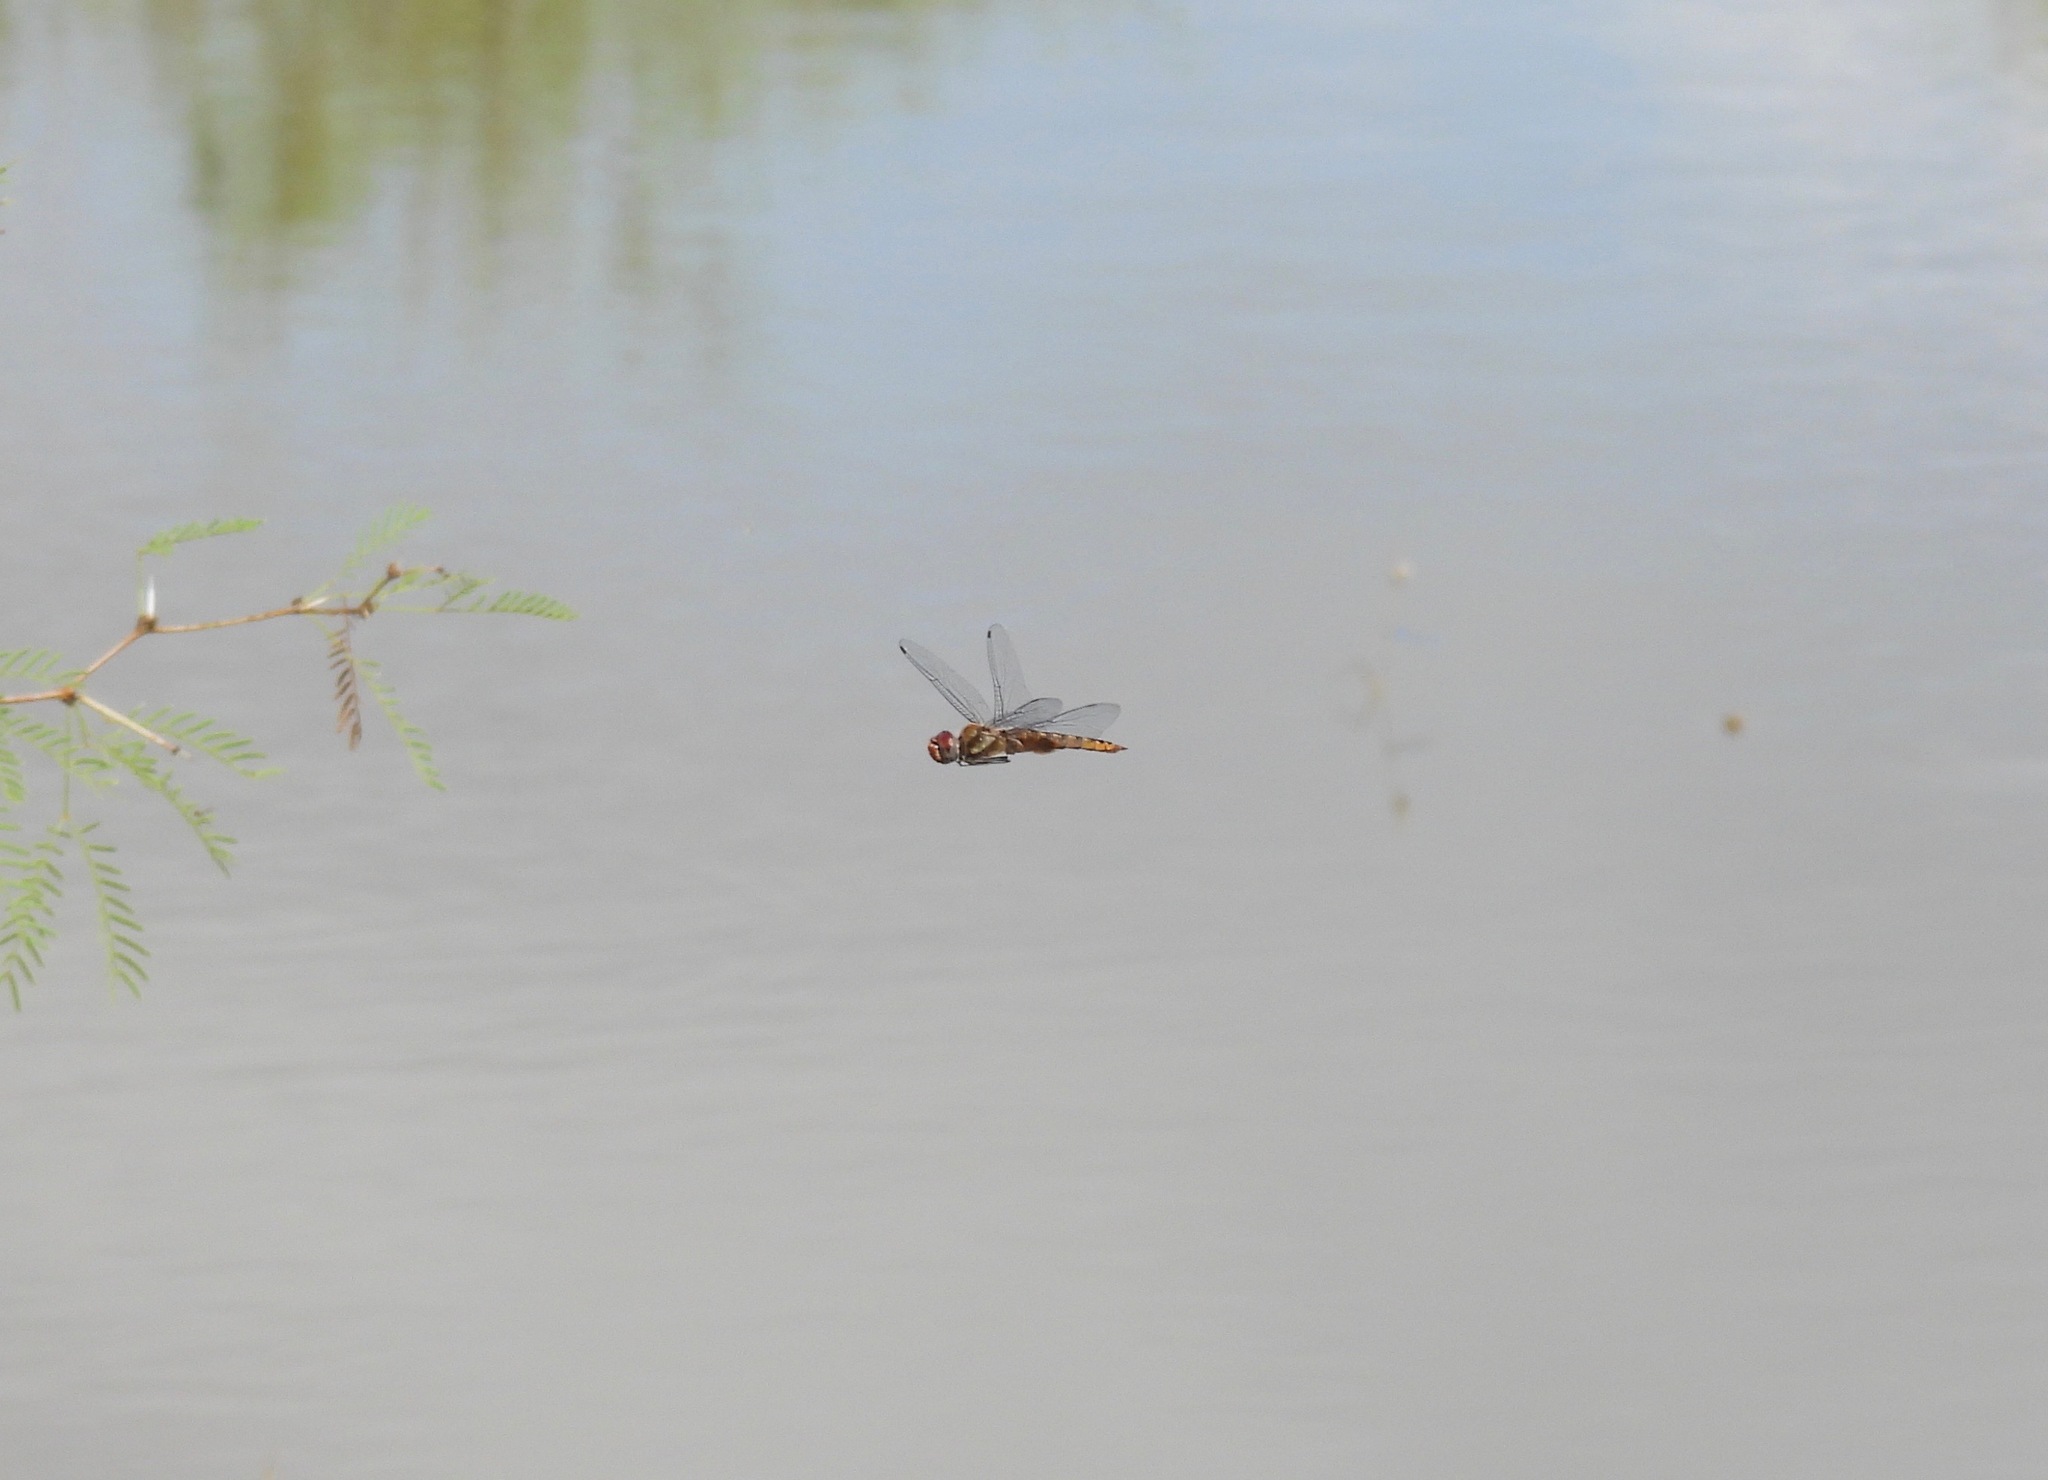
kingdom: Animalia
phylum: Arthropoda
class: Insecta
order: Odonata
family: Libellulidae
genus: Pantala
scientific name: Pantala hymenaea
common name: Spot-winged glider
